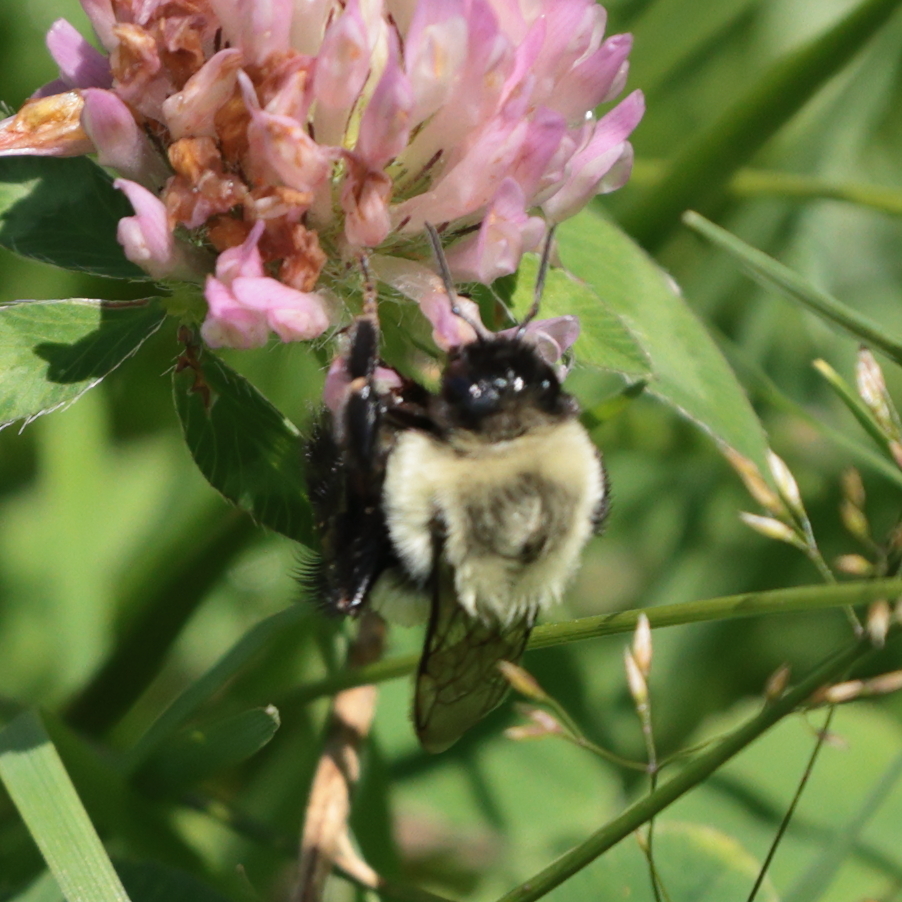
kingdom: Animalia
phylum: Arthropoda
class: Insecta
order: Hymenoptera
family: Apidae
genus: Bombus
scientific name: Bombus impatiens
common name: Common eastern bumble bee
